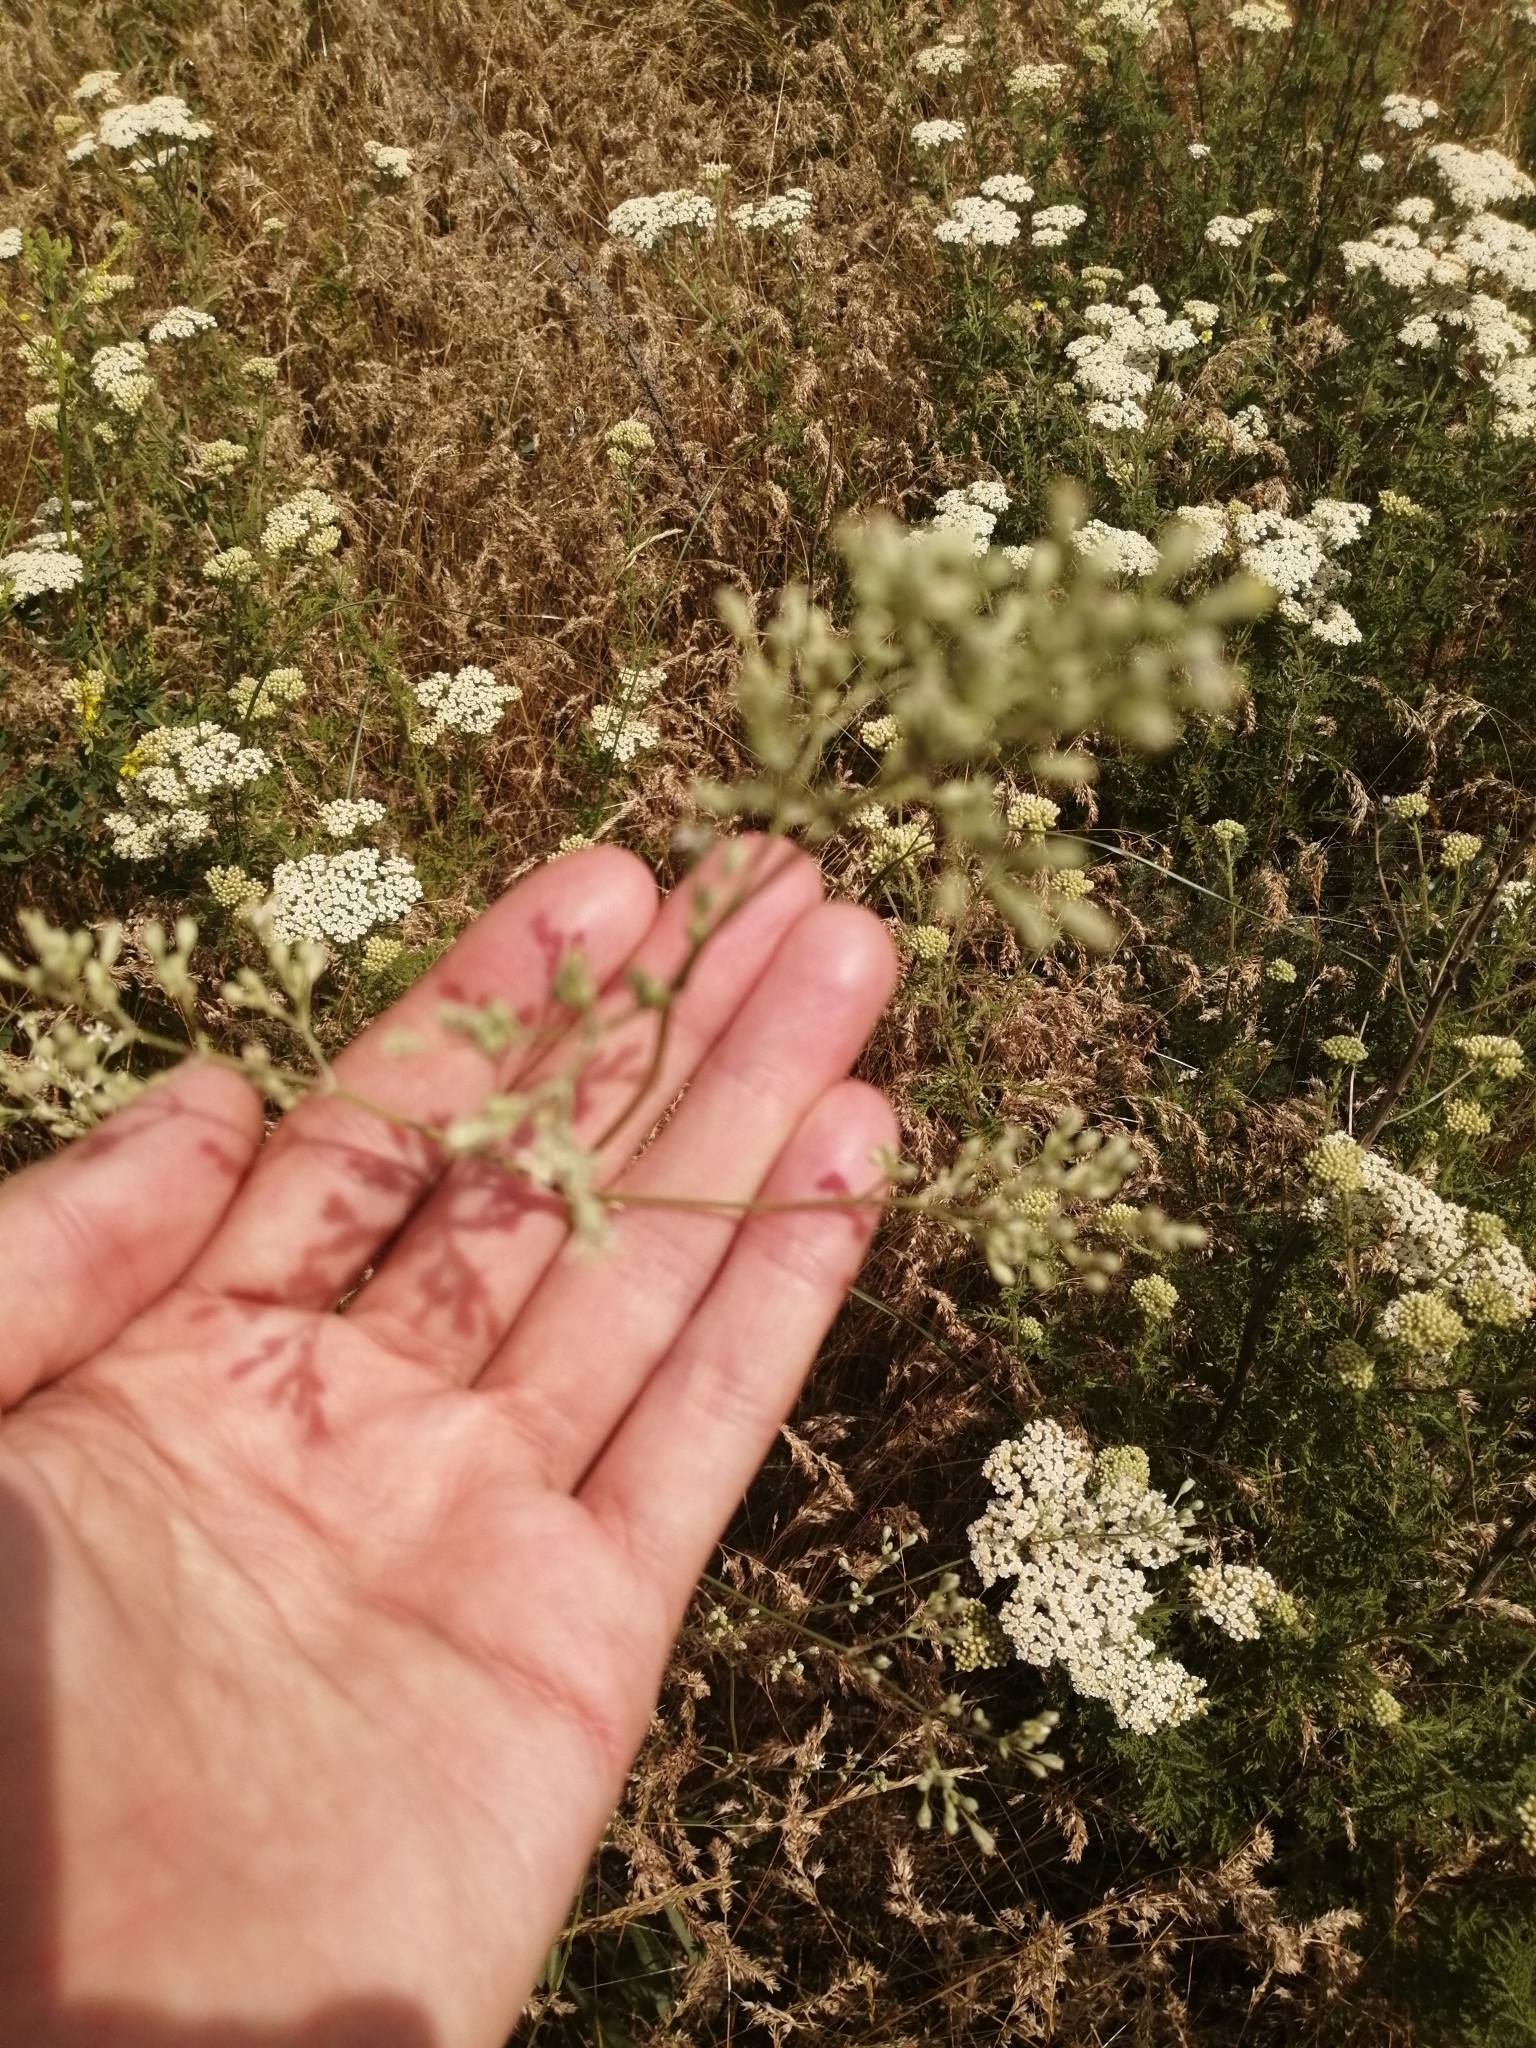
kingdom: Plantae
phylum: Tracheophyta
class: Magnoliopsida
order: Caryophyllales
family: Caryophyllaceae
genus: Silene
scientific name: Silene wolgensis
